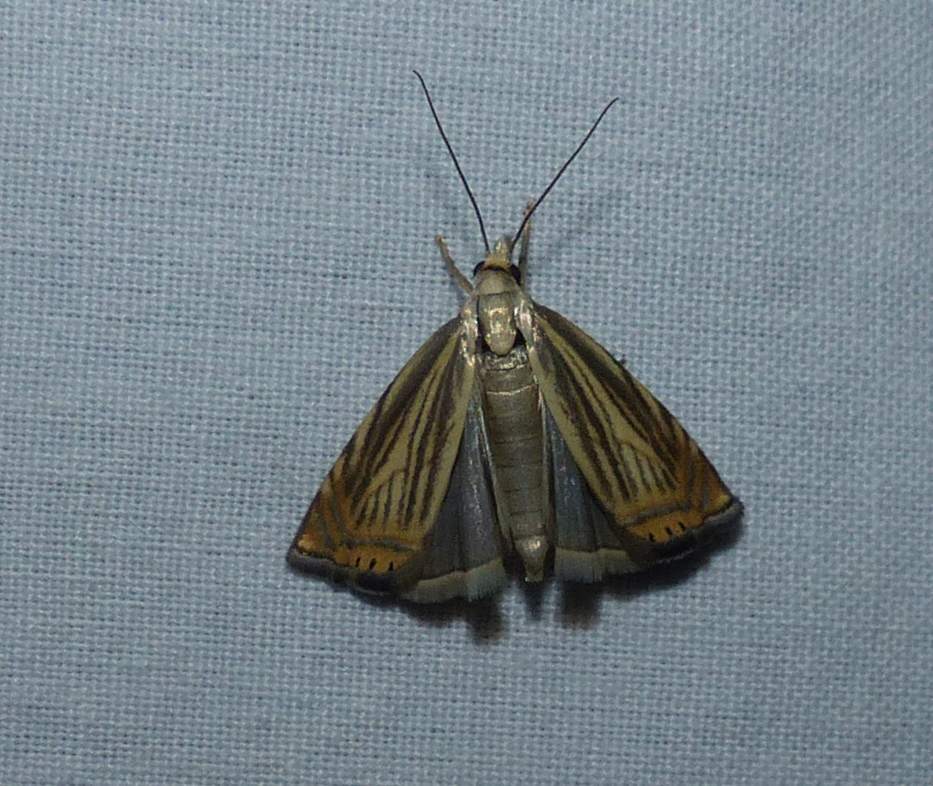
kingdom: Animalia
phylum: Arthropoda
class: Insecta
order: Lepidoptera
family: Crambidae
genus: Chrysoteuchia
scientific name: Chrysoteuchia topiarius
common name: Topiary grass-veneer
